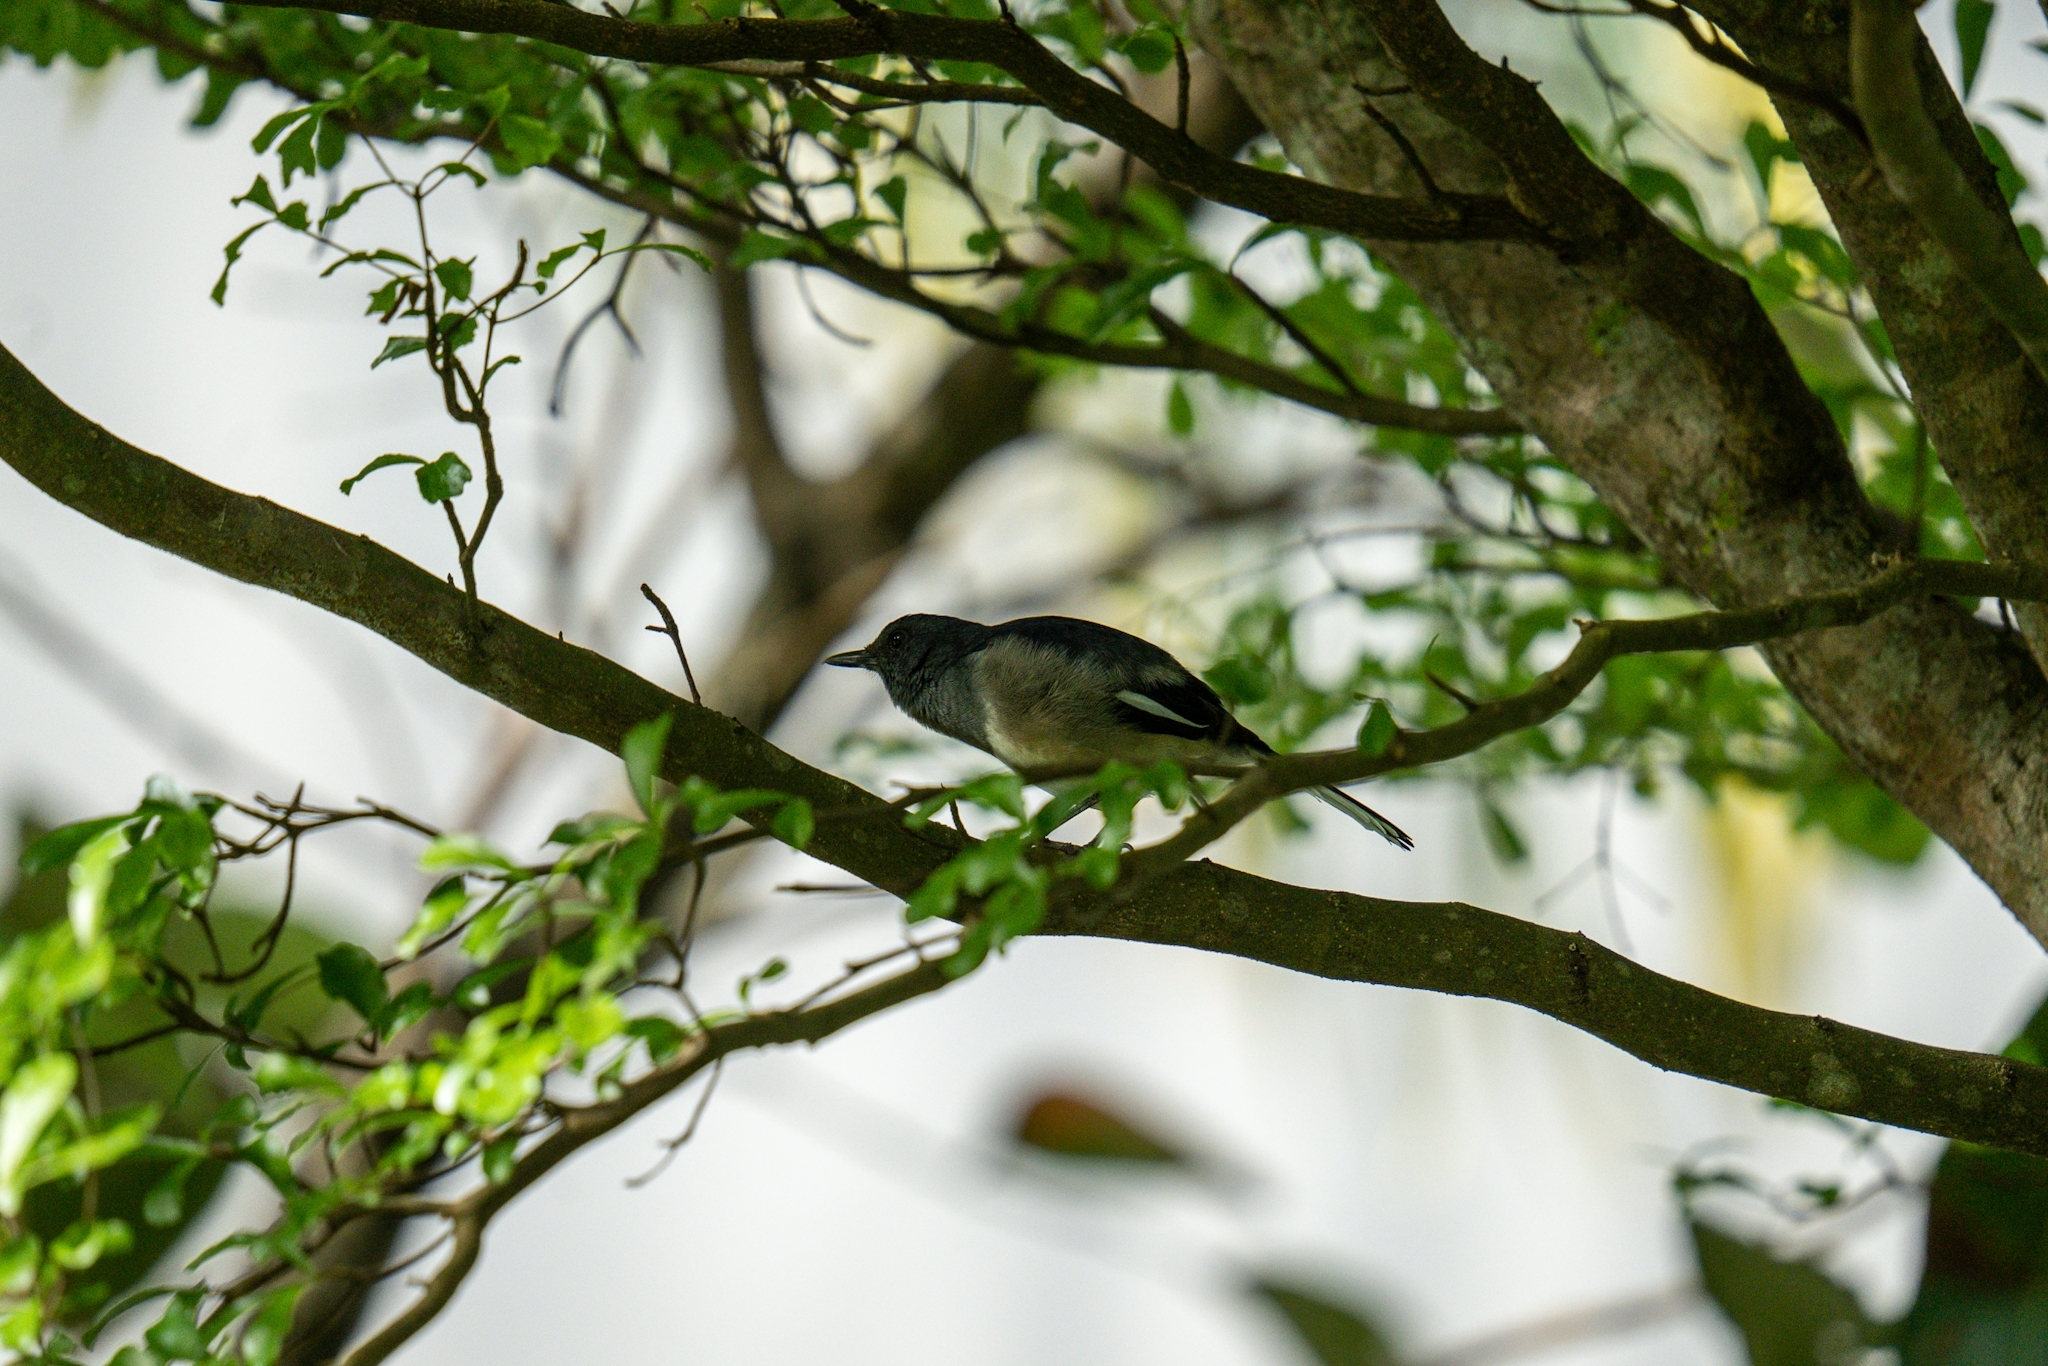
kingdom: Animalia
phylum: Chordata
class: Aves
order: Passeriformes
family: Muscicapidae
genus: Copsychus
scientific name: Copsychus saularis
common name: Oriental magpie-robin
